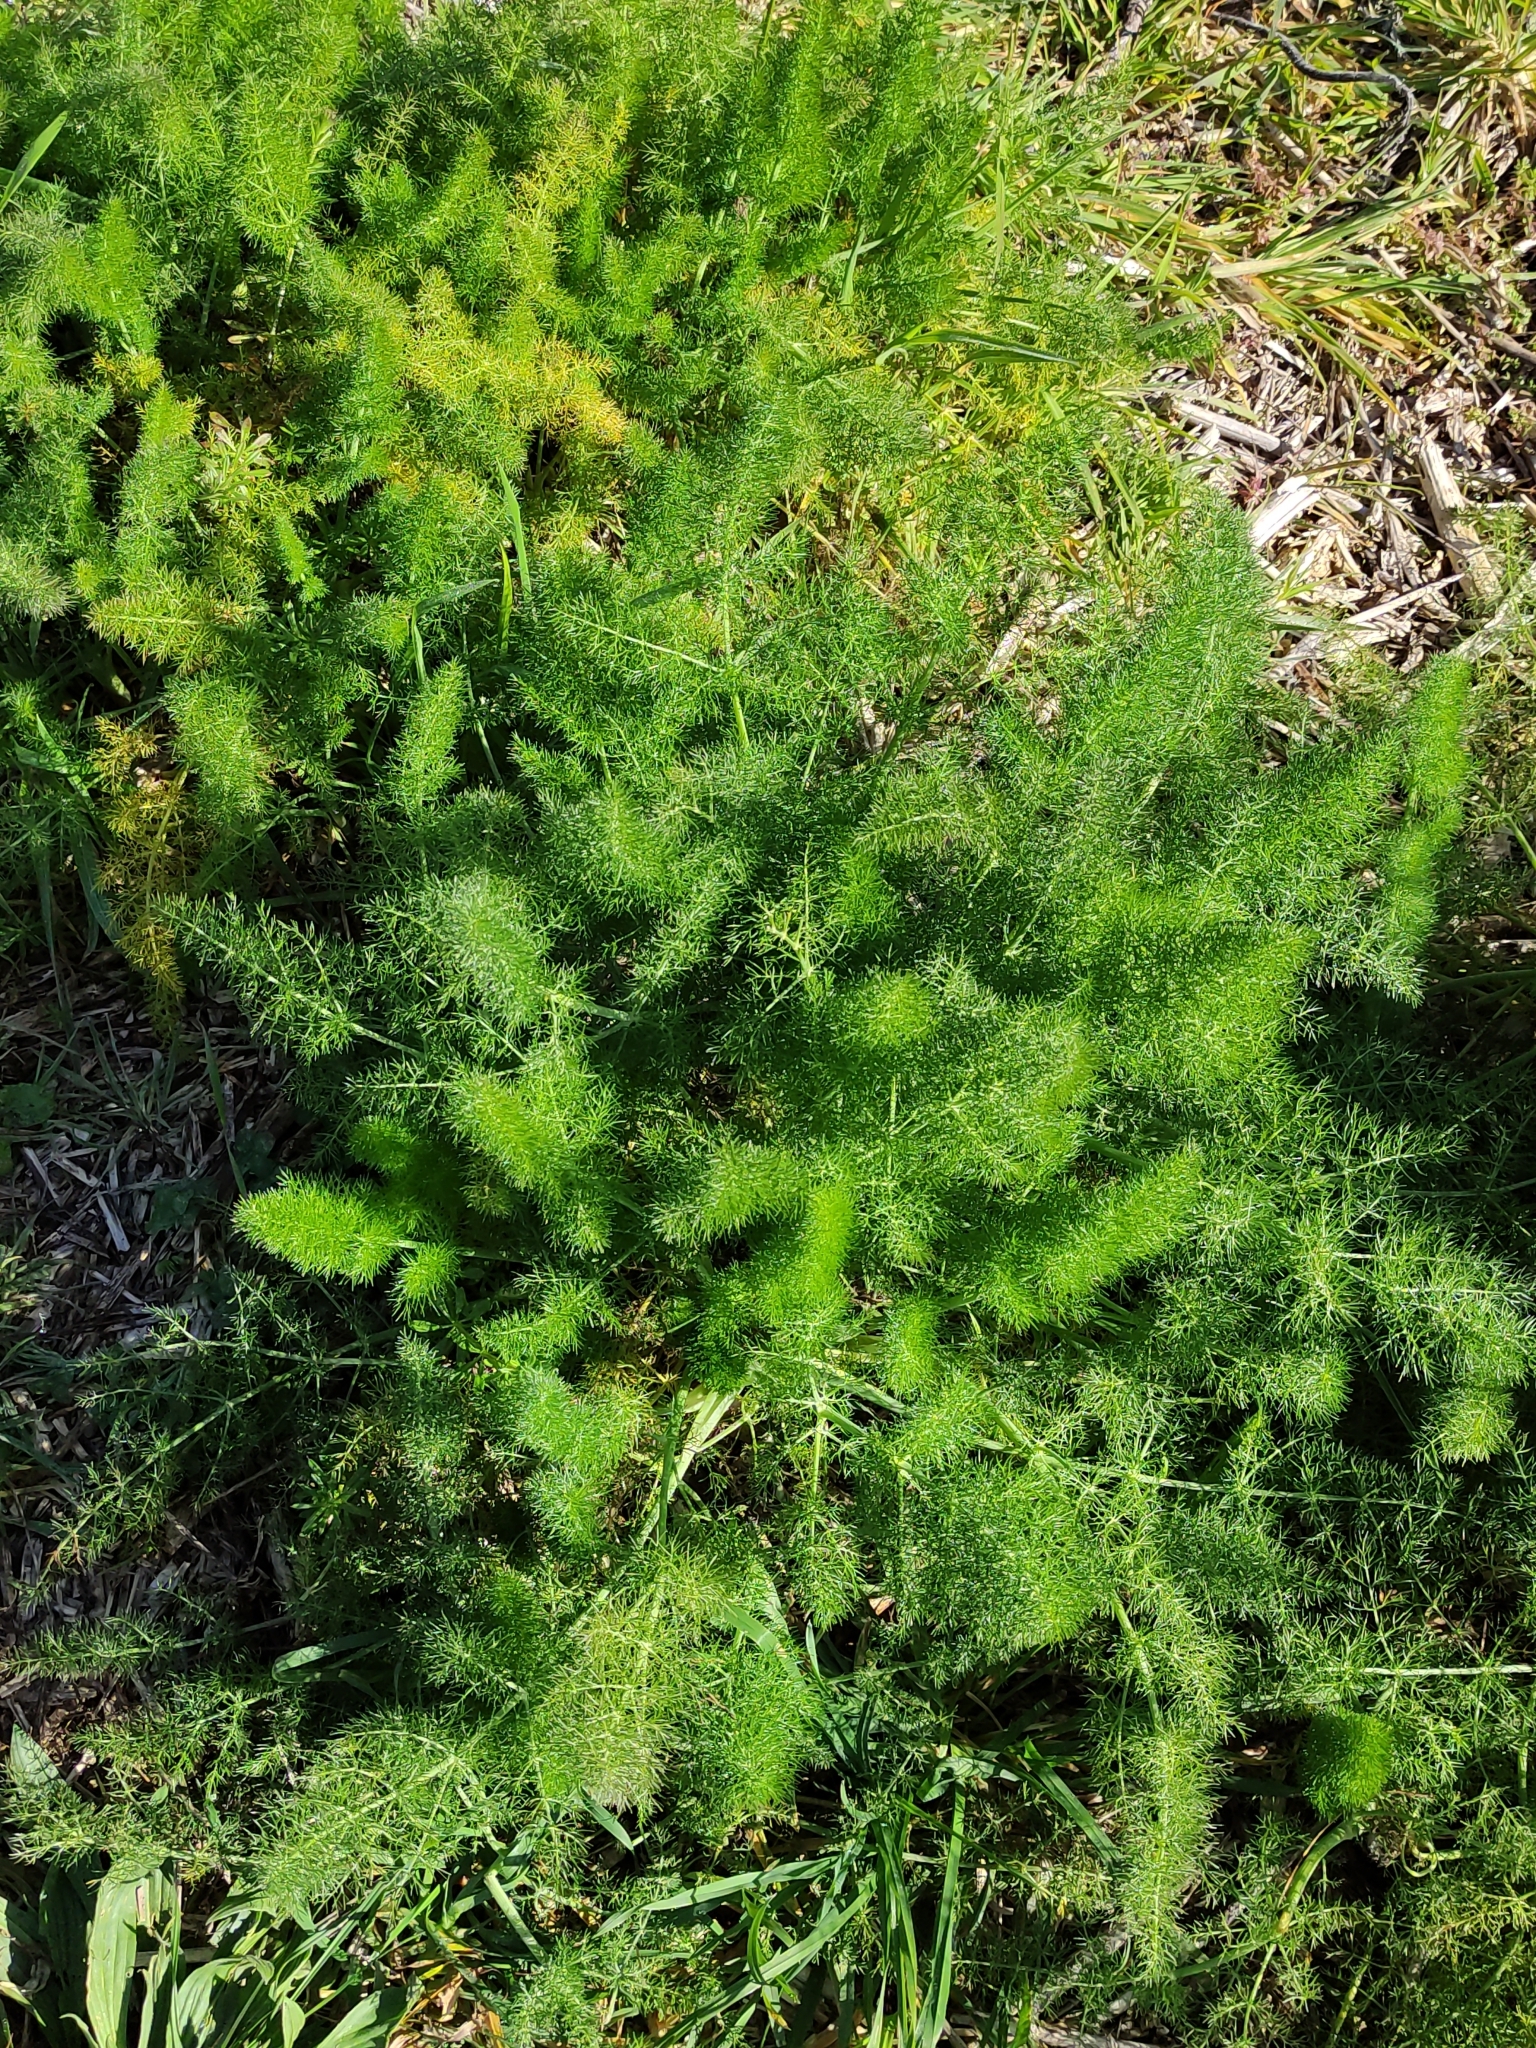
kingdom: Plantae
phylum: Tracheophyta
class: Magnoliopsida
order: Apiales
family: Apiaceae
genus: Foeniculum
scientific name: Foeniculum vulgare
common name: Fennel
